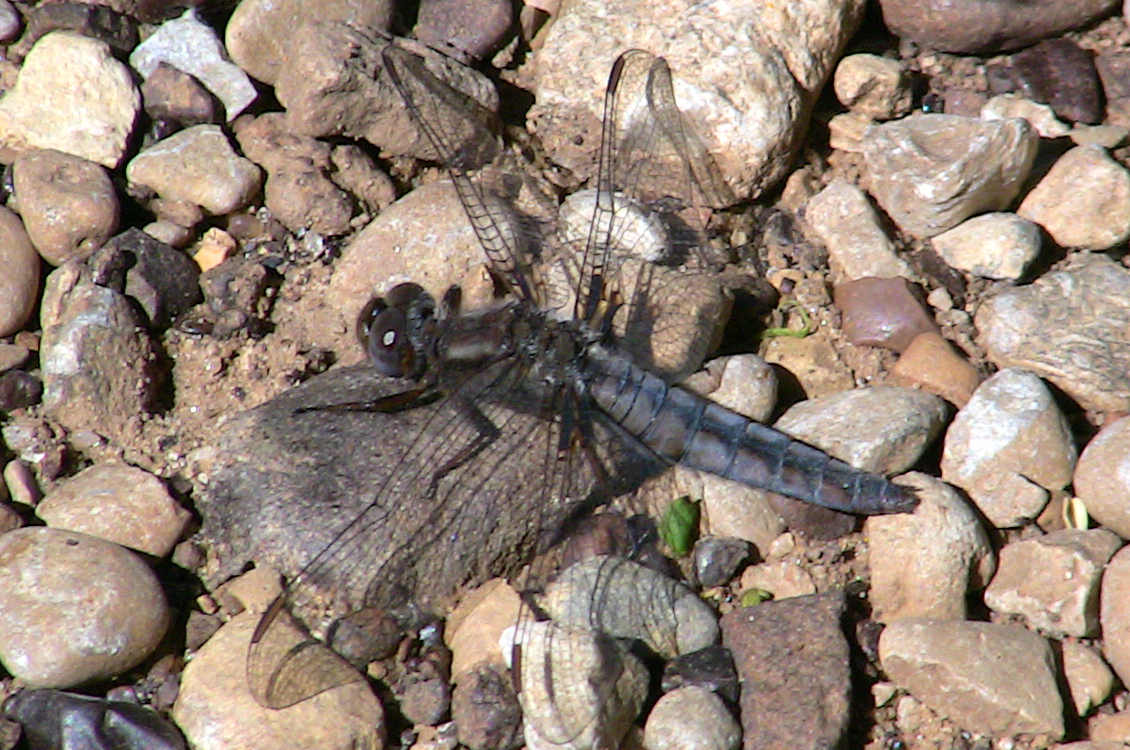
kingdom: Animalia
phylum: Arthropoda
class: Insecta
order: Odonata
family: Libellulidae
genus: Ladona
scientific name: Ladona deplanata
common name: Blue corporal
